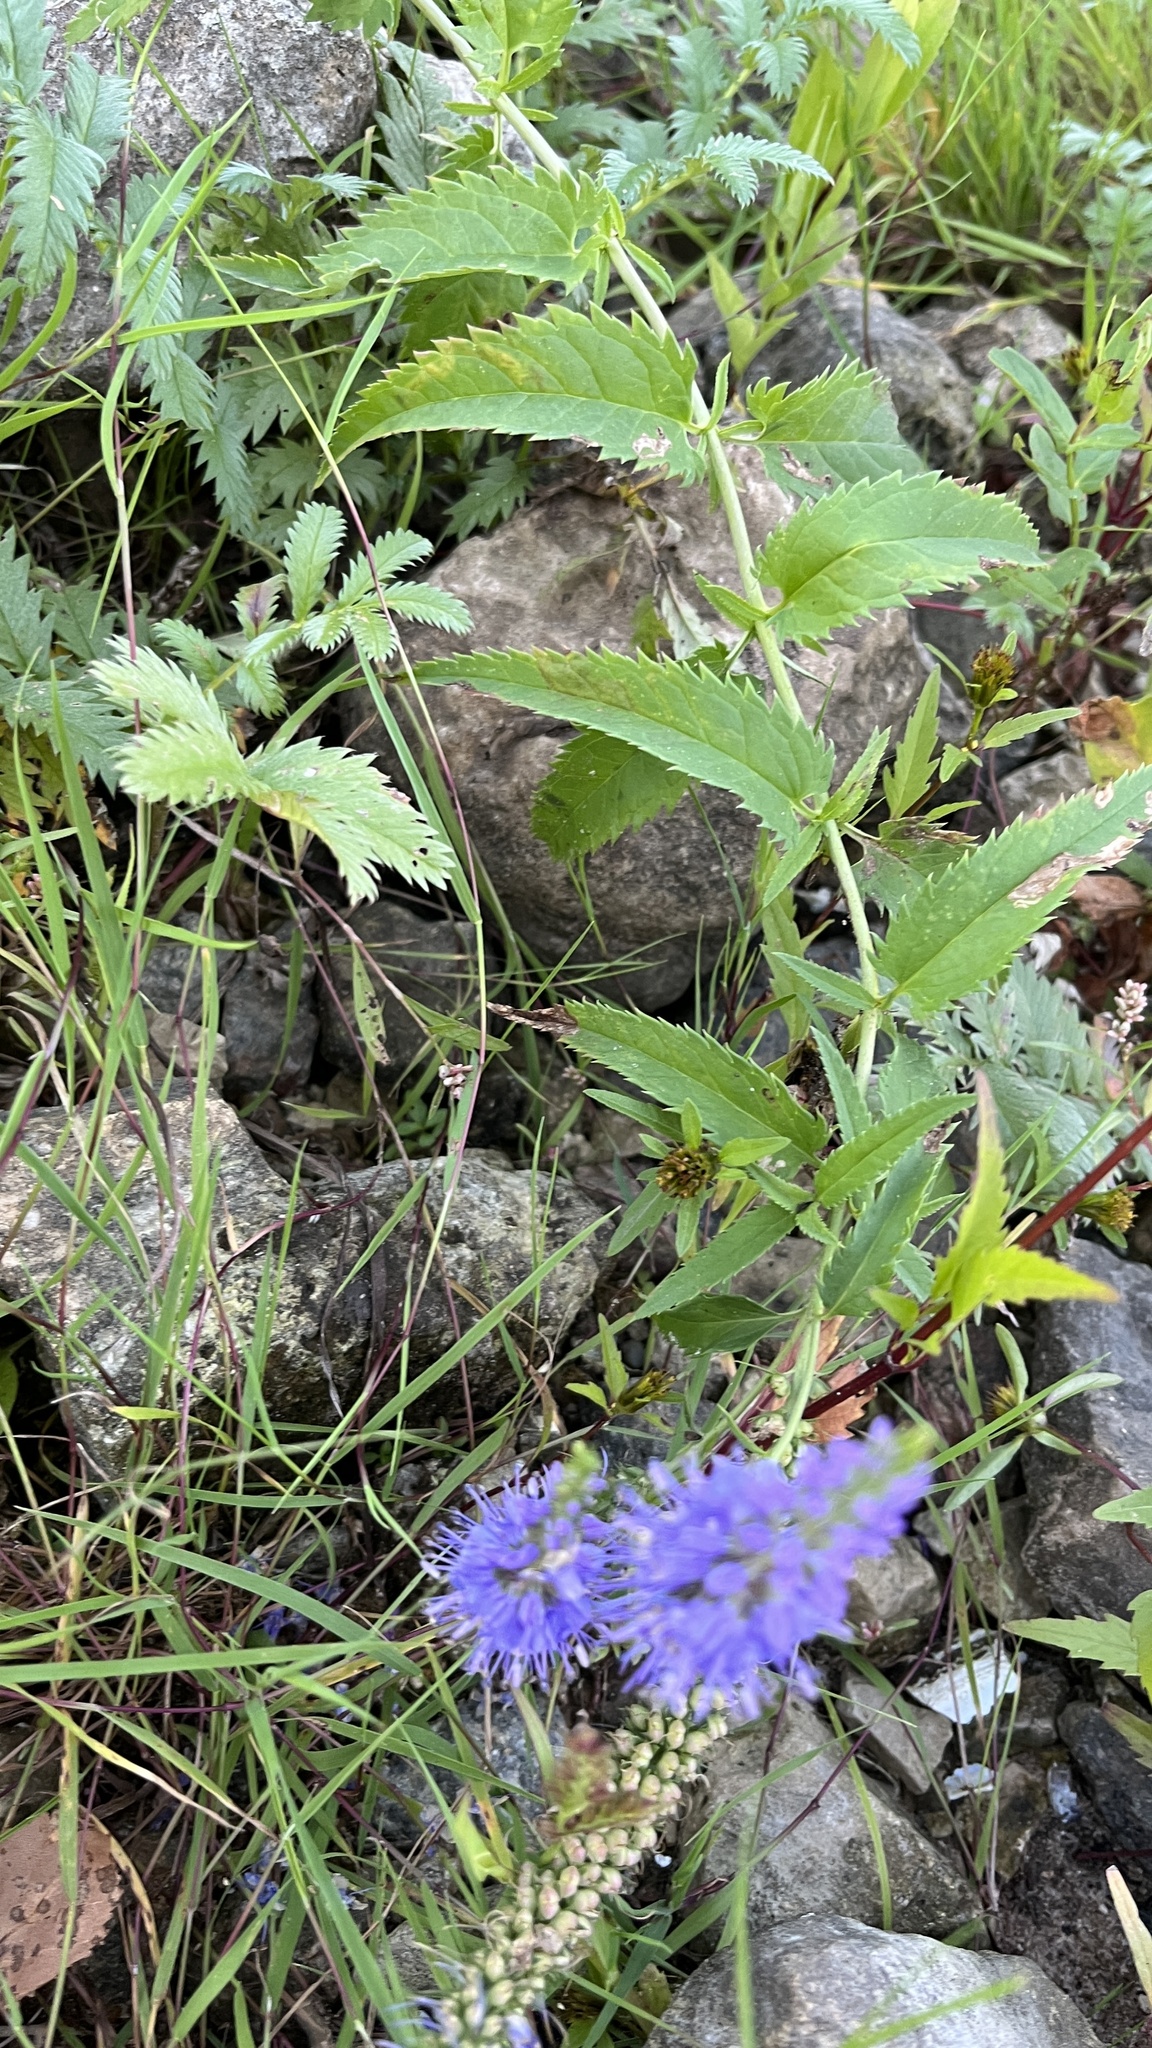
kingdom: Plantae
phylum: Tracheophyta
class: Magnoliopsida
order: Lamiales
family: Plantaginaceae
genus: Veronica
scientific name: Veronica longifolia
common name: Garden speedwell
